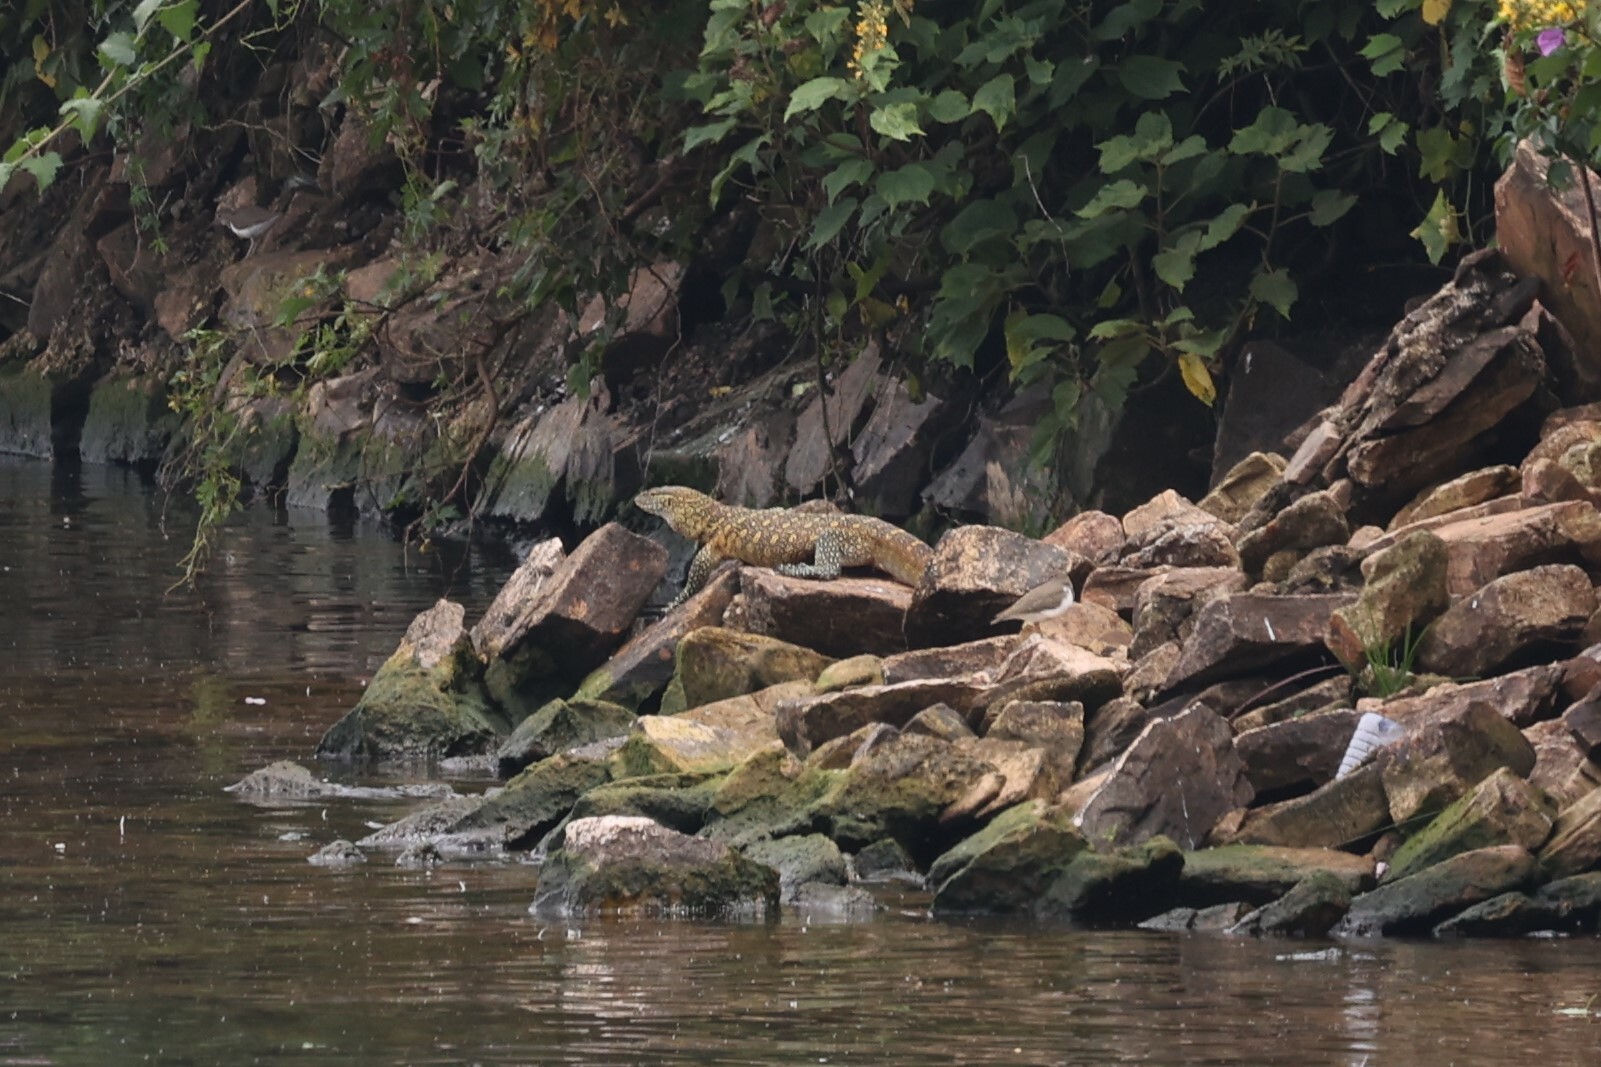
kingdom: Animalia
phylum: Chordata
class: Squamata
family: Varanidae
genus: Varanus
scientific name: Varanus niloticus
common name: Nile monitor
